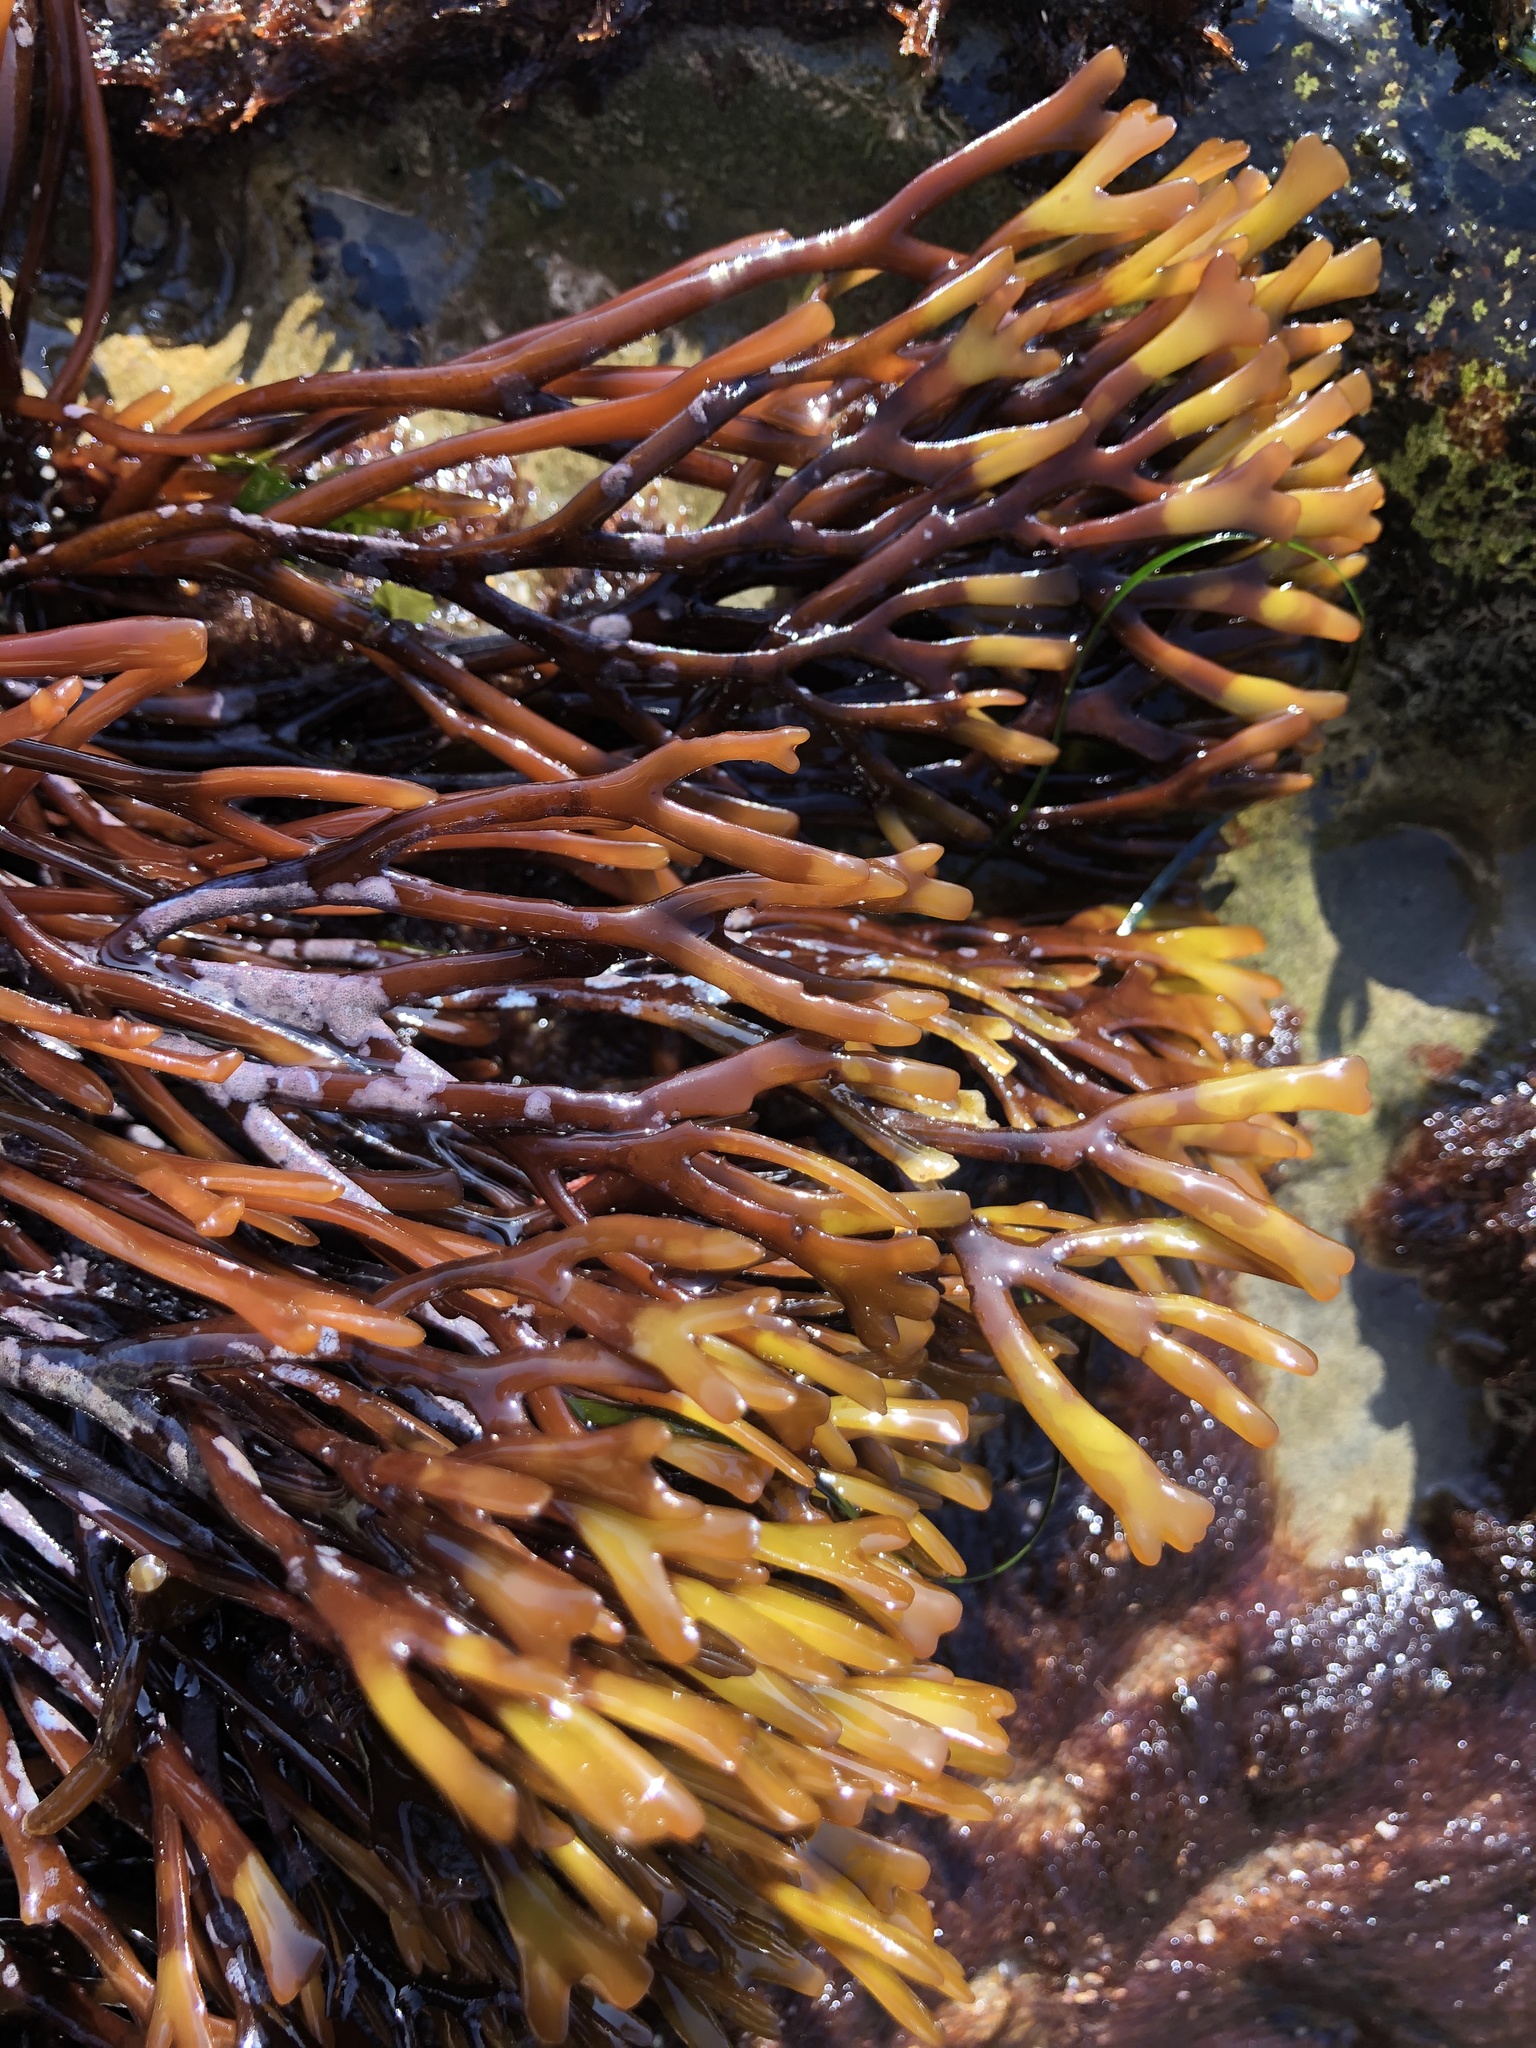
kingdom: Plantae
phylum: Rhodophyta
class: Florideophyceae
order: Gigartinales
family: Phyllophoraceae
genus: Ahnfeltiopsis
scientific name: Ahnfeltiopsis linearis
